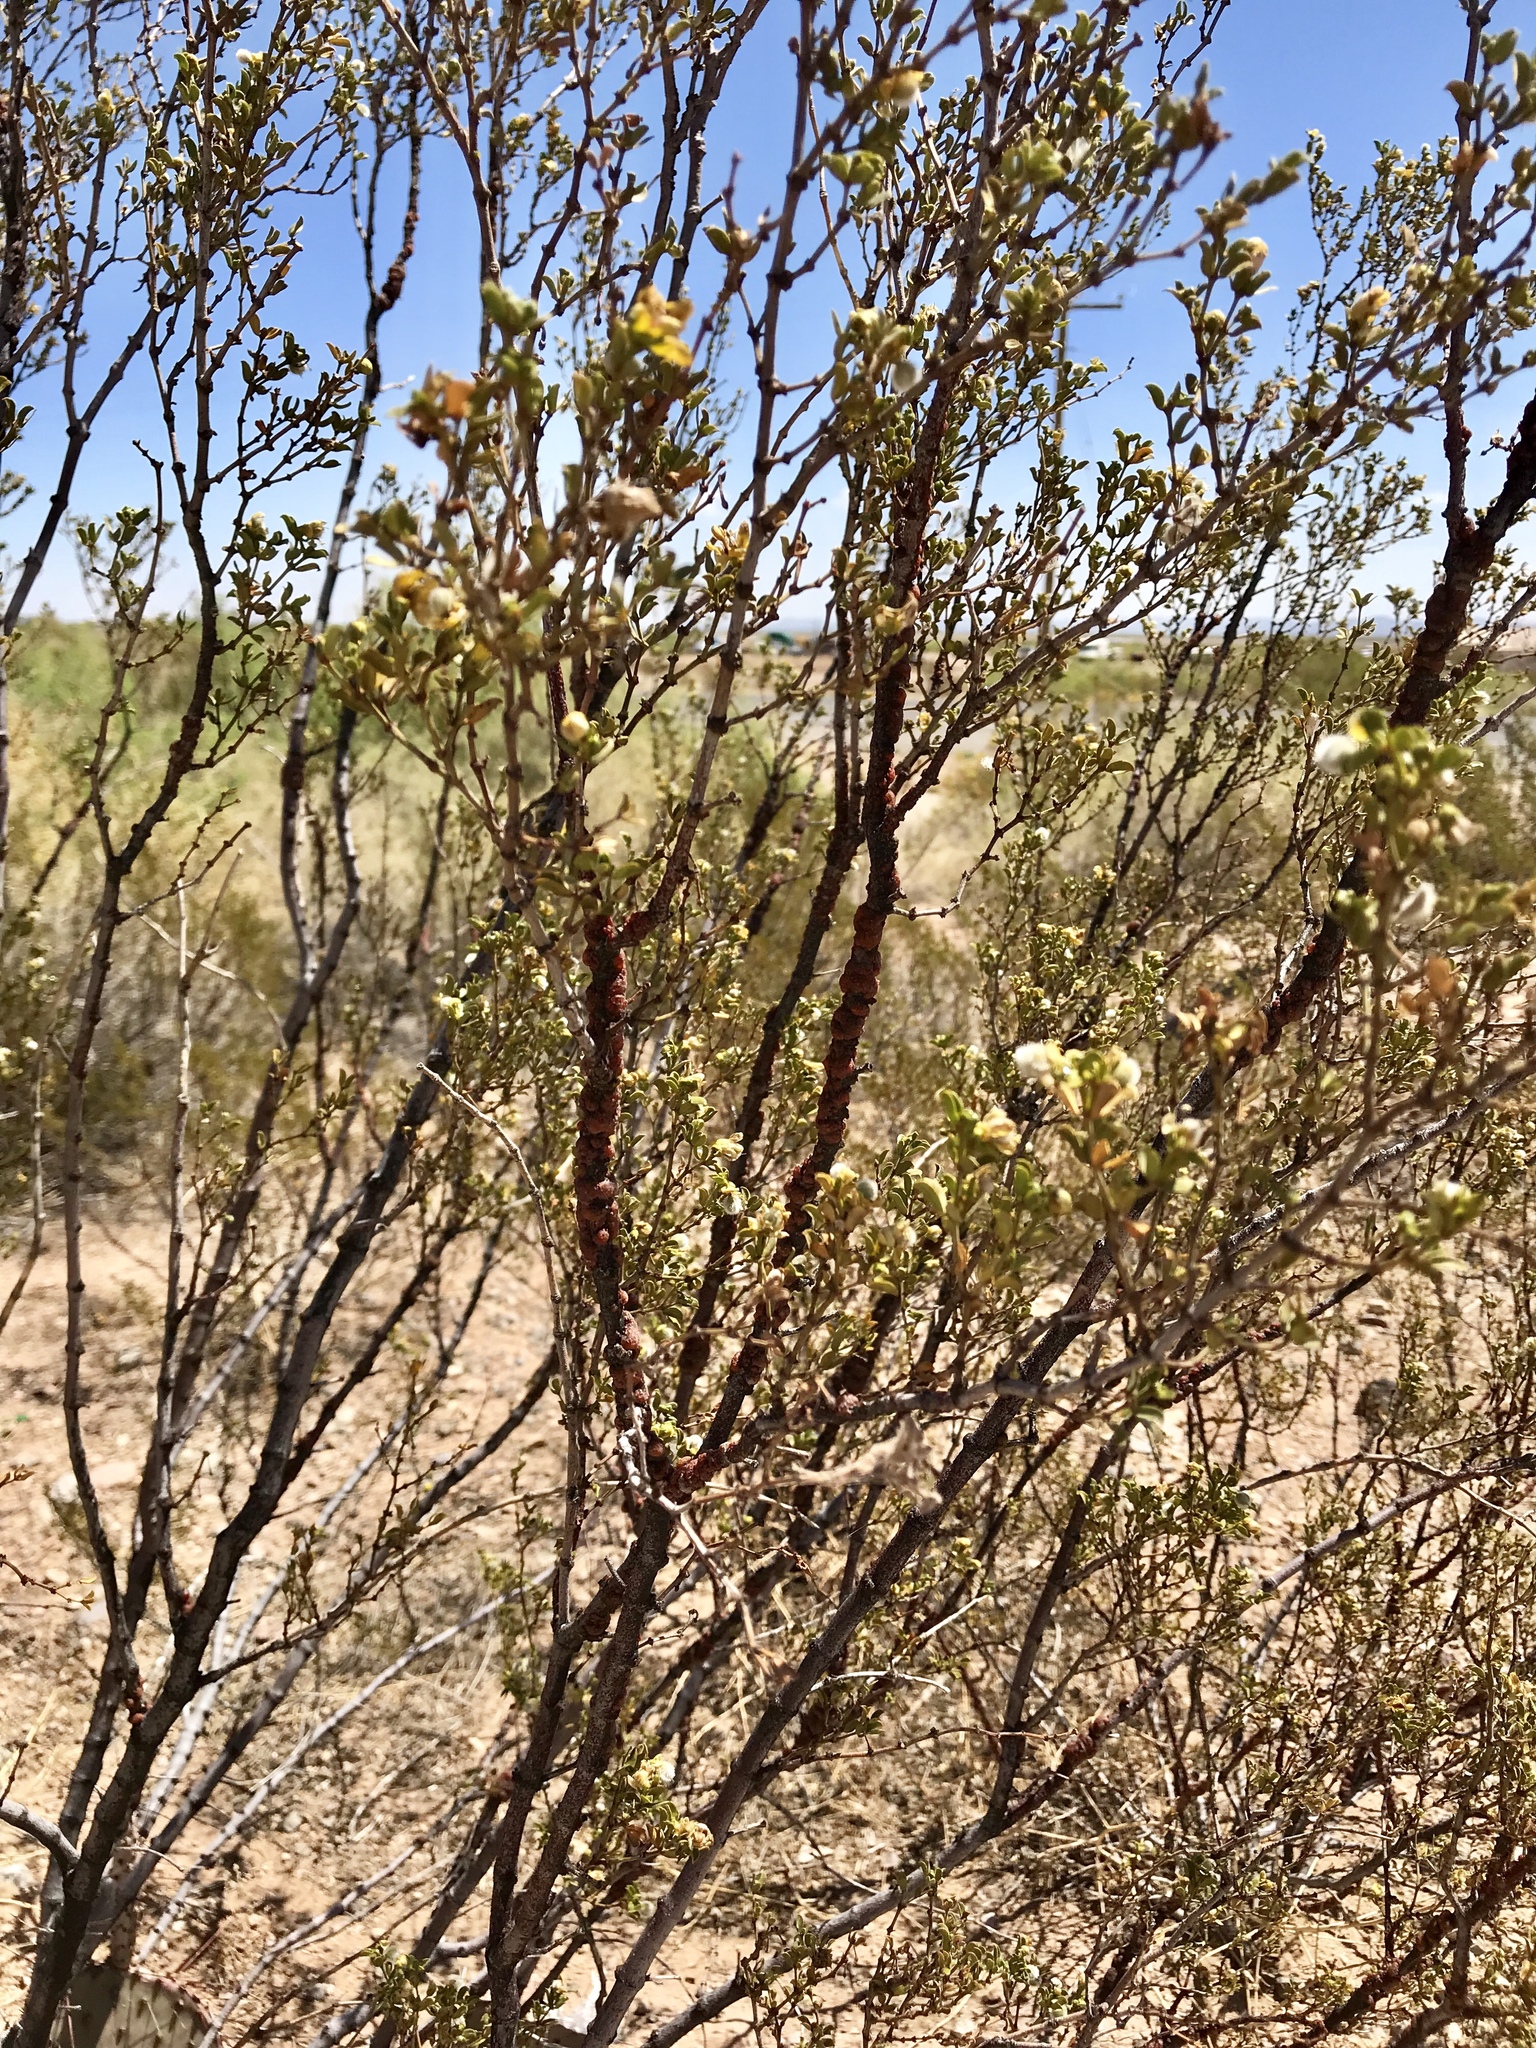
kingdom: Animalia
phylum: Arthropoda
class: Insecta
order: Hemiptera
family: Kerriidae
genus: Tachardiella
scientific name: Tachardiella larreae
